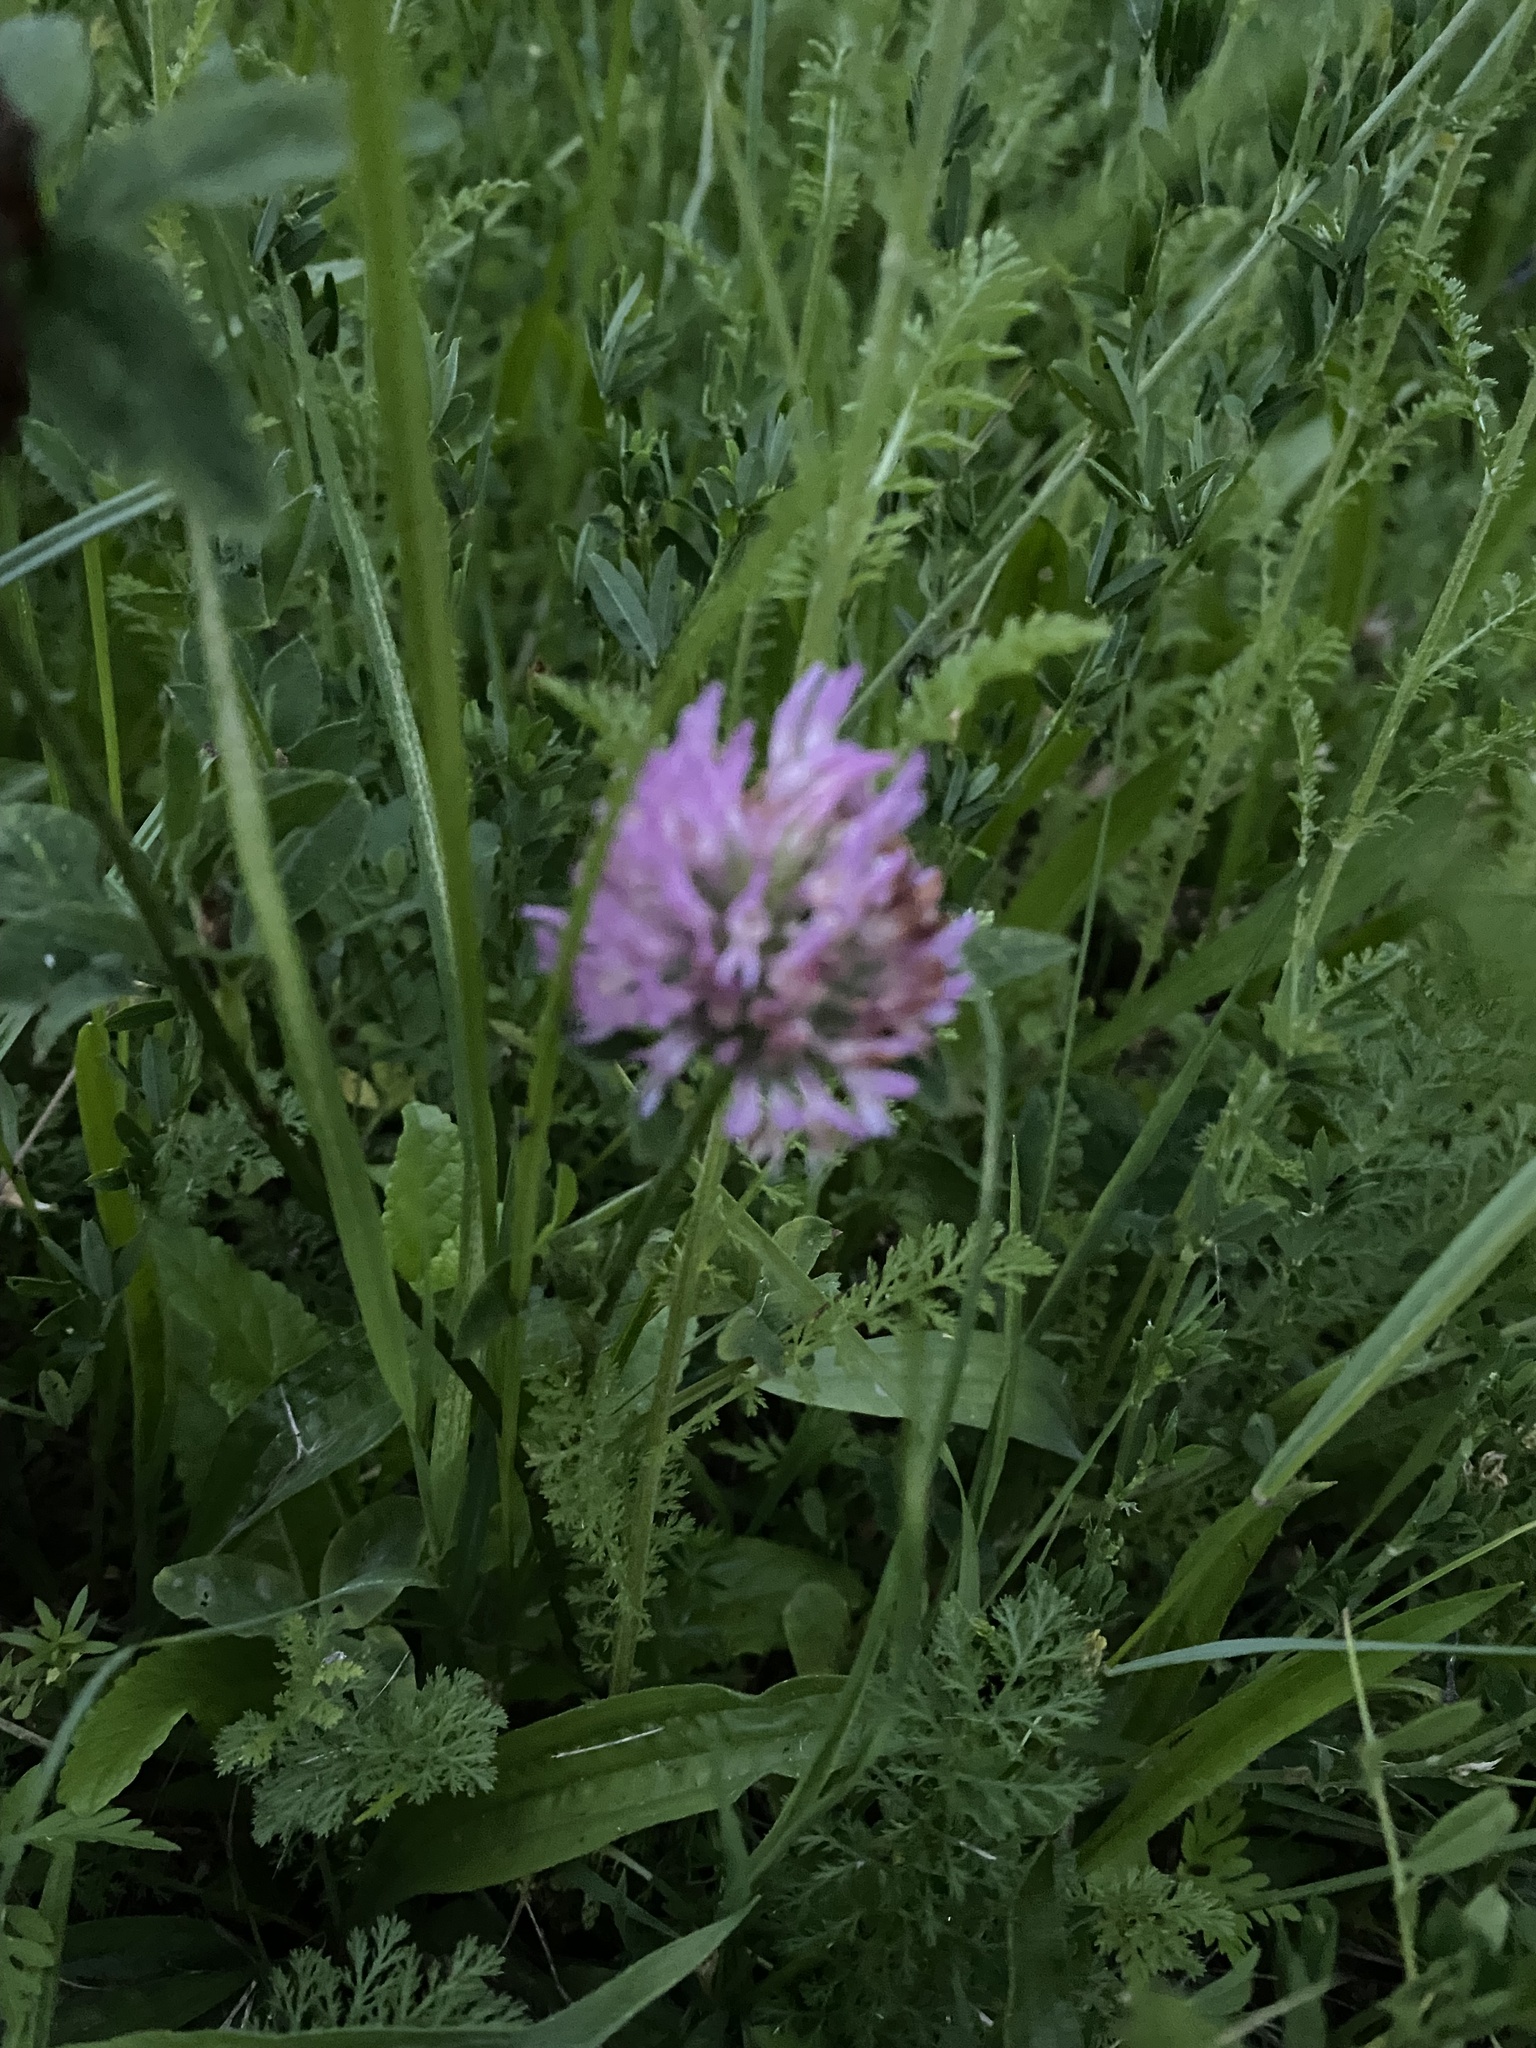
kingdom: Plantae
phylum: Tracheophyta
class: Magnoliopsida
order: Fabales
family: Fabaceae
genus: Trifolium
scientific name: Trifolium pratense
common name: Red clover
